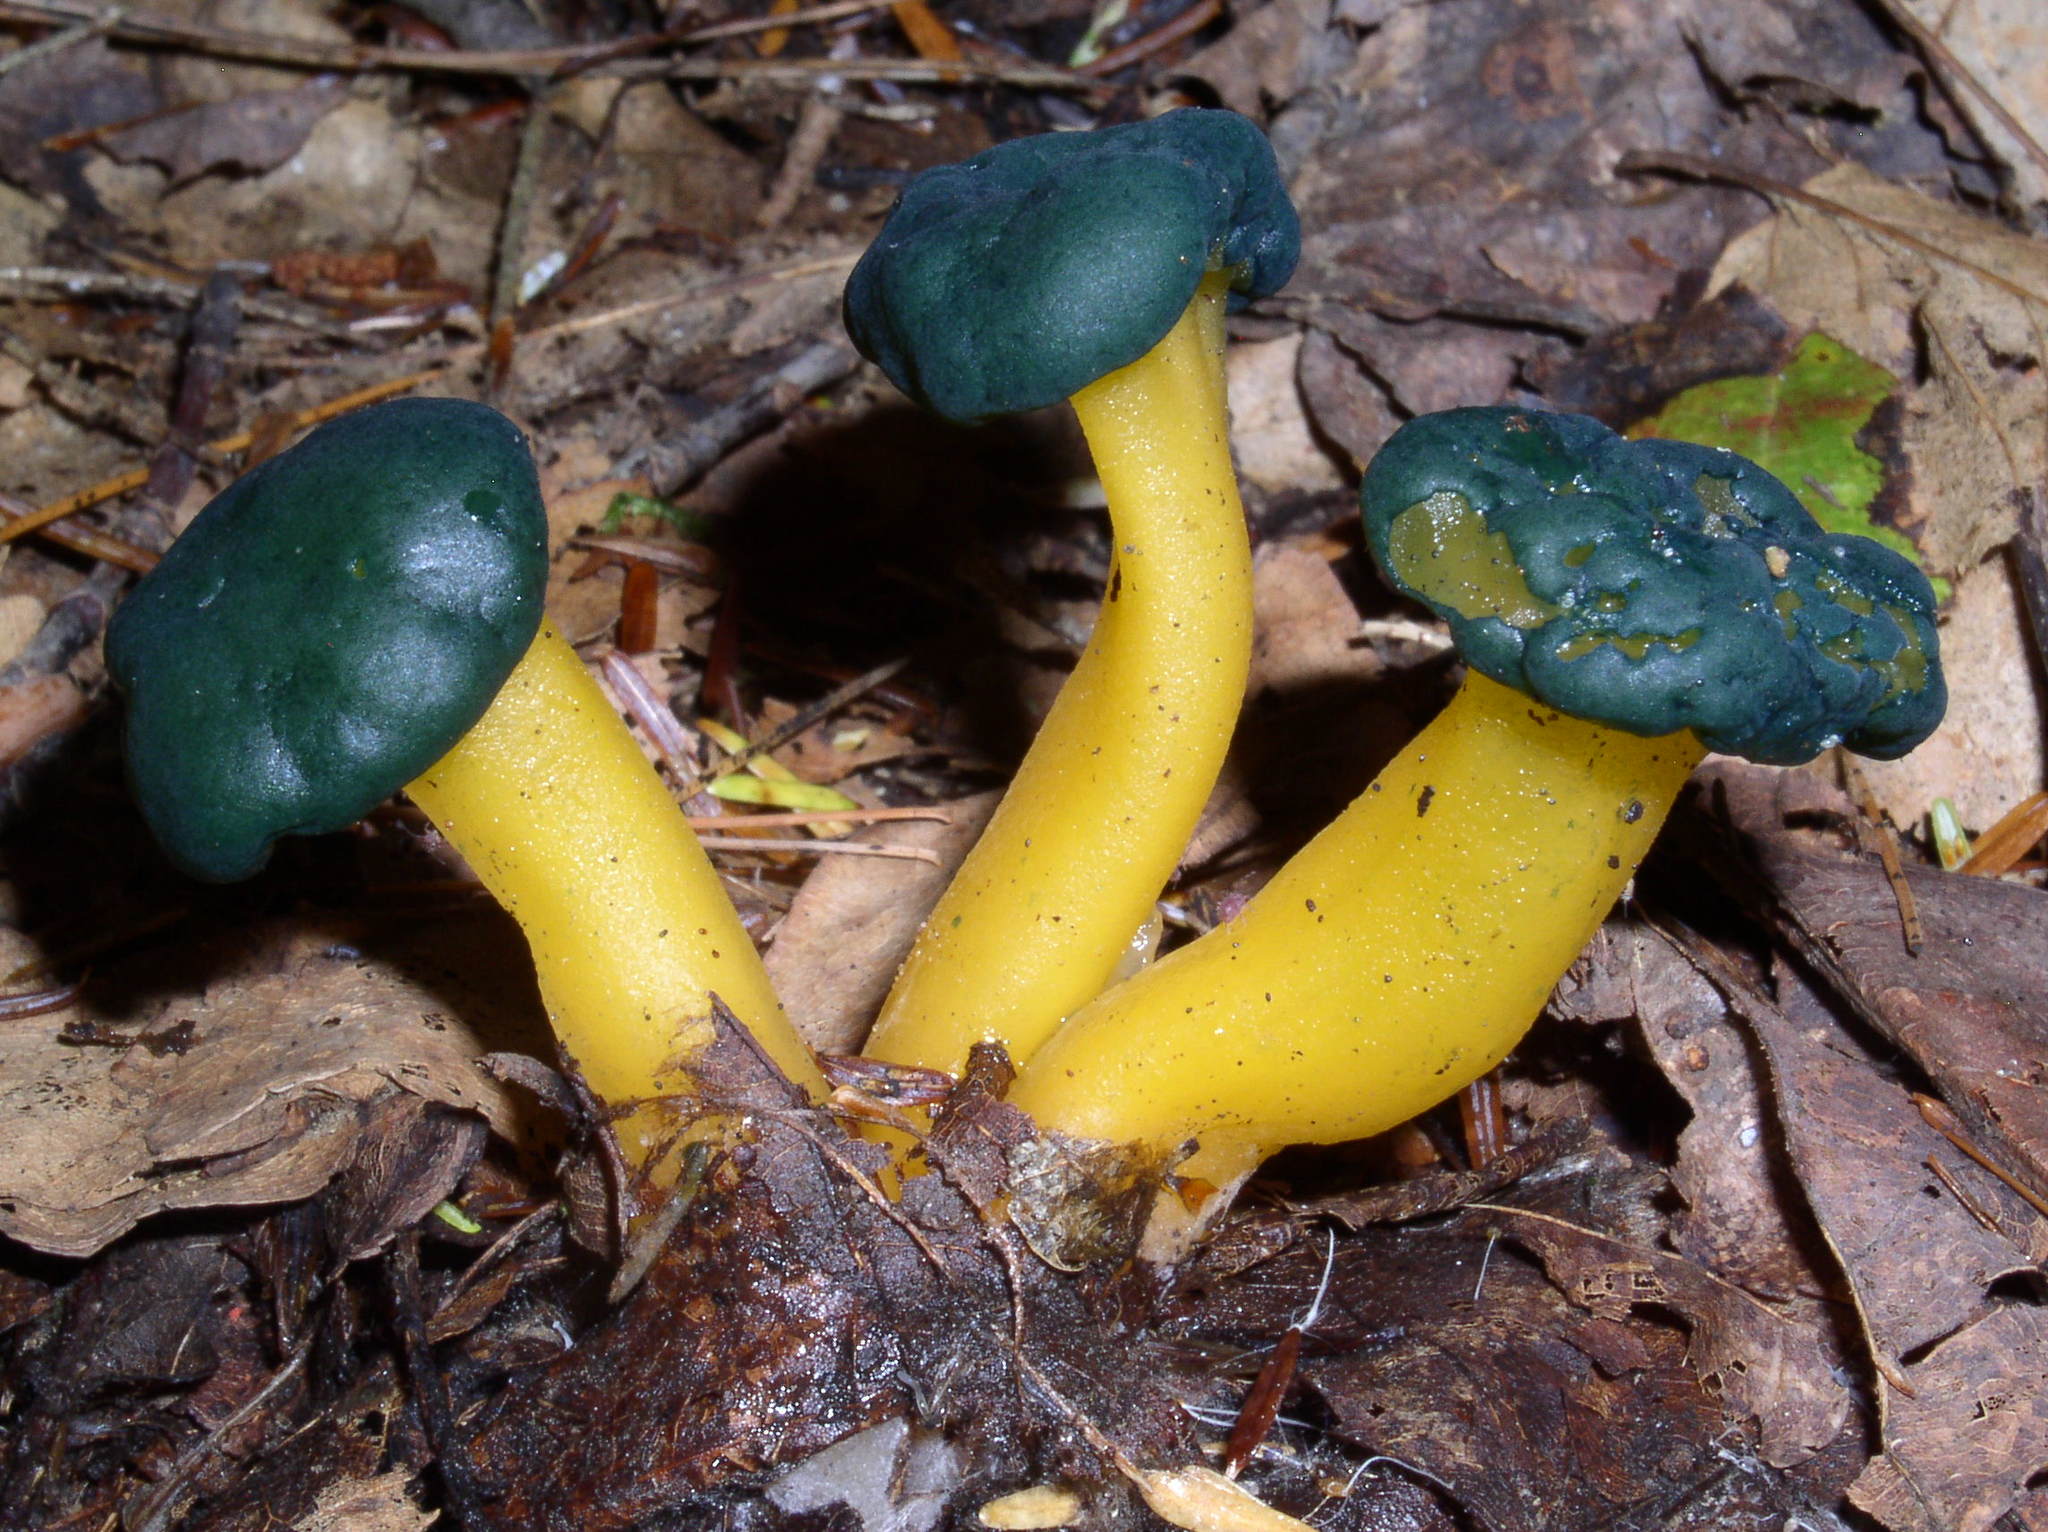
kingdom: Fungi
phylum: Ascomycota
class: Leotiomycetes
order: Leotiales
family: Leotiaceae
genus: Leotia
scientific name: Leotia lubrica
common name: Jellybaby
